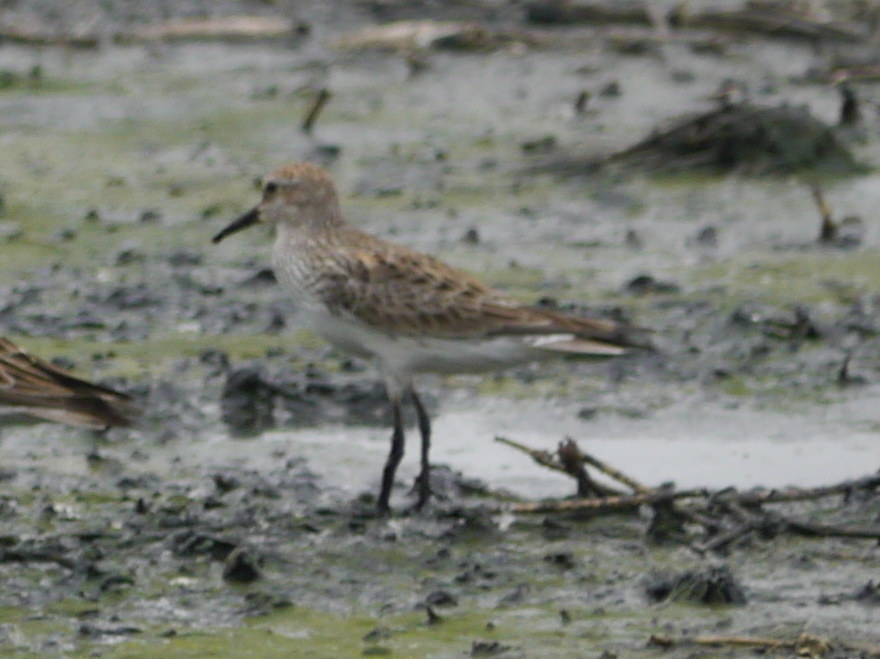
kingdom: Animalia
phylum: Chordata
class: Aves
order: Charadriiformes
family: Scolopacidae
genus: Calidris
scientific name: Calidris fuscicollis
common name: White-rumped sandpiper
